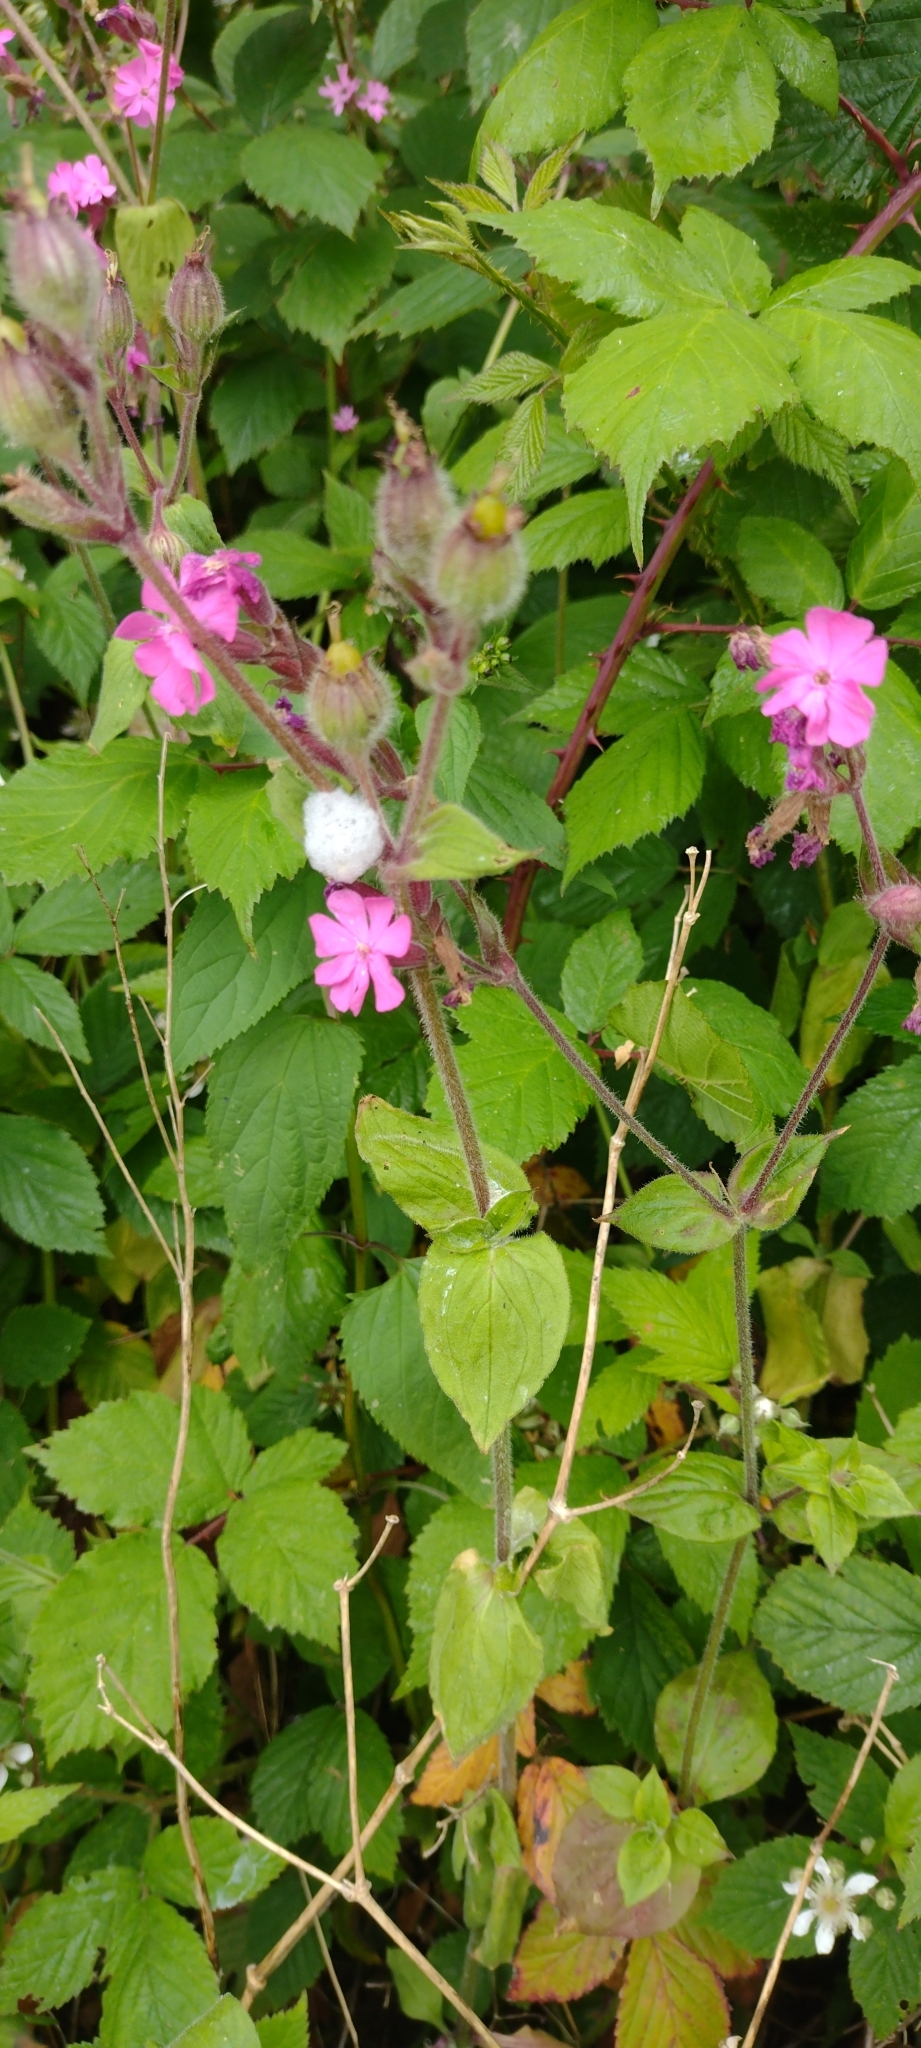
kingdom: Plantae
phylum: Tracheophyta
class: Magnoliopsida
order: Caryophyllales
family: Caryophyllaceae
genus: Silene
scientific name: Silene dioica
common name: Red campion
